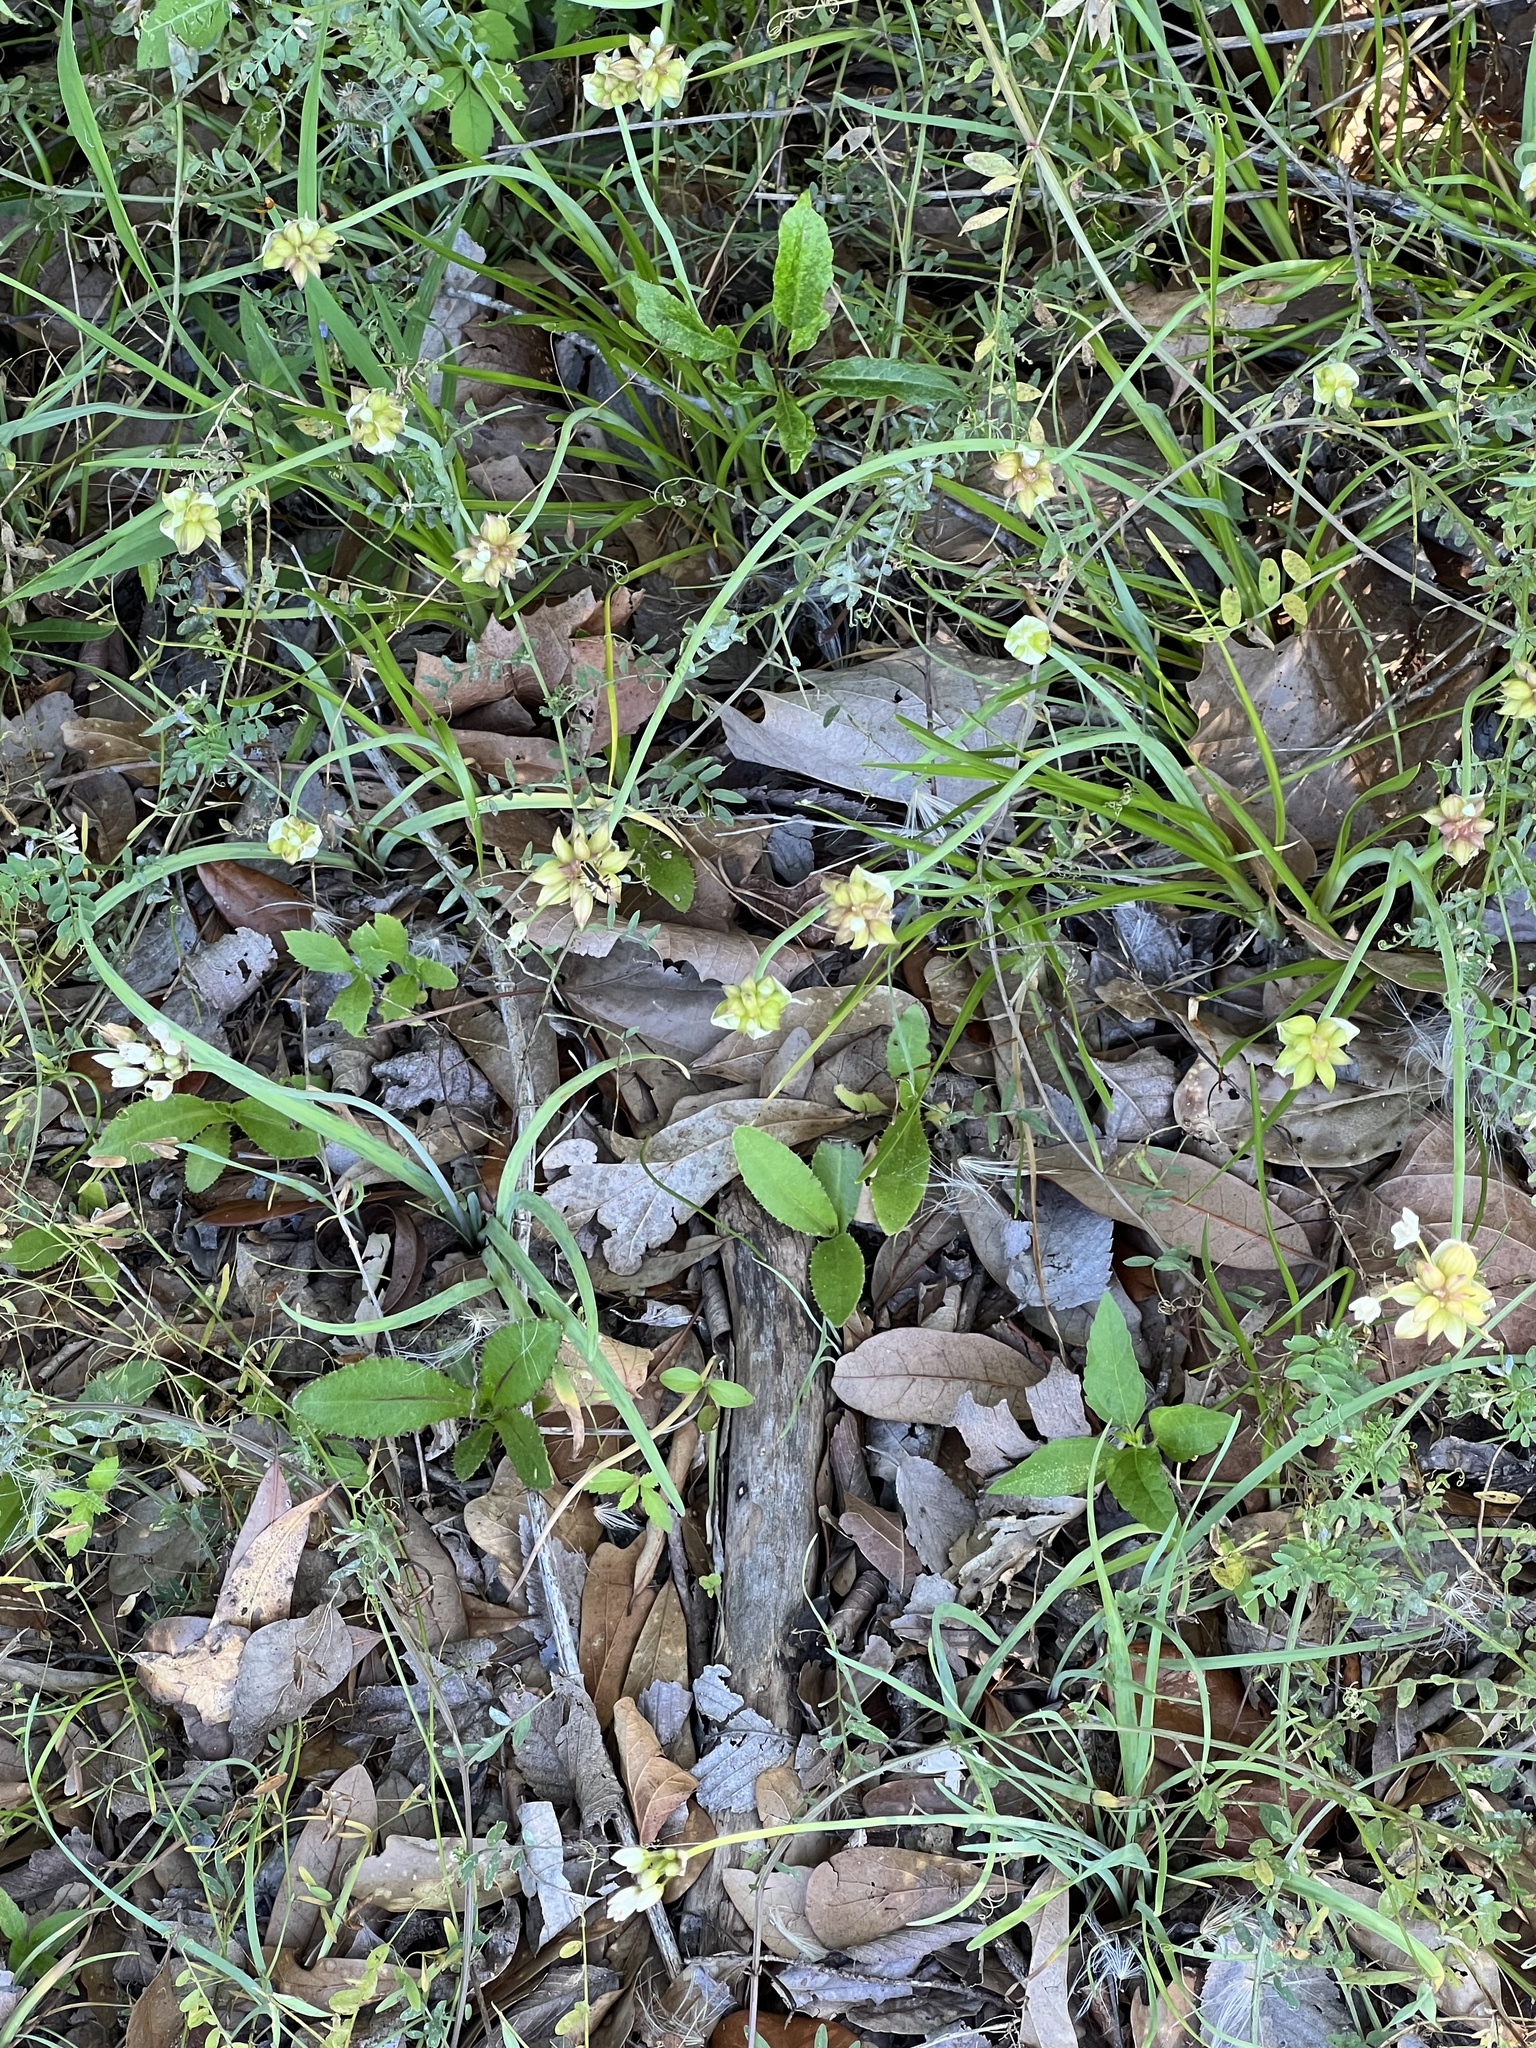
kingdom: Plantae
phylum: Tracheophyta
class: Liliopsida
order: Asparagales
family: Amaryllidaceae
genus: Allium
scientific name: Allium canadense
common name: Meadow garlic
